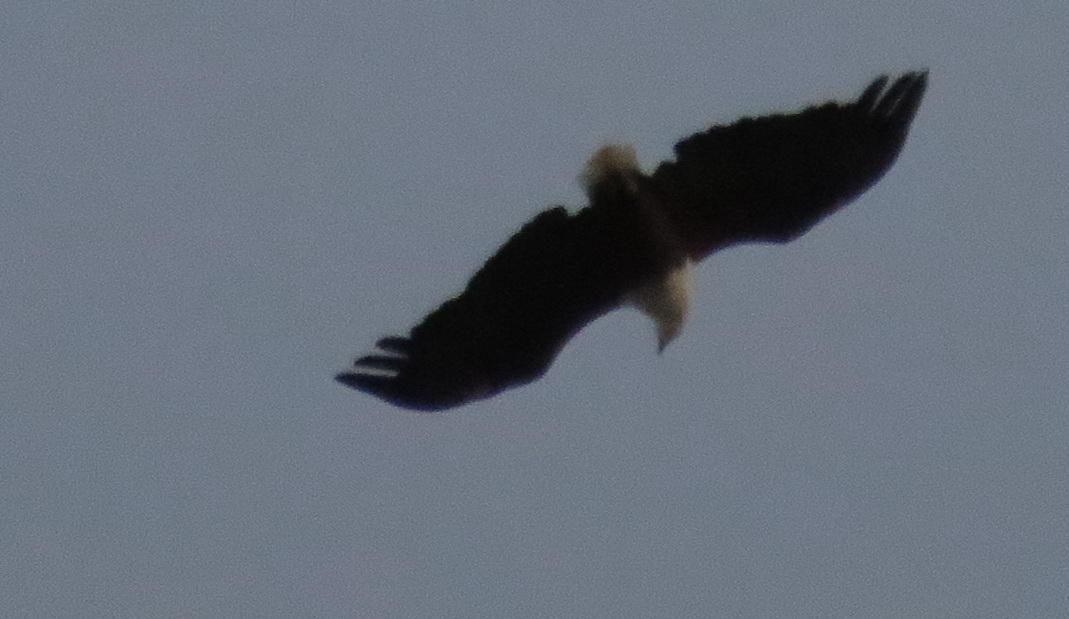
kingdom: Animalia
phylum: Chordata
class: Aves
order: Accipitriformes
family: Accipitridae
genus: Haliaeetus
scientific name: Haliaeetus vocifer
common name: African fish eagle
